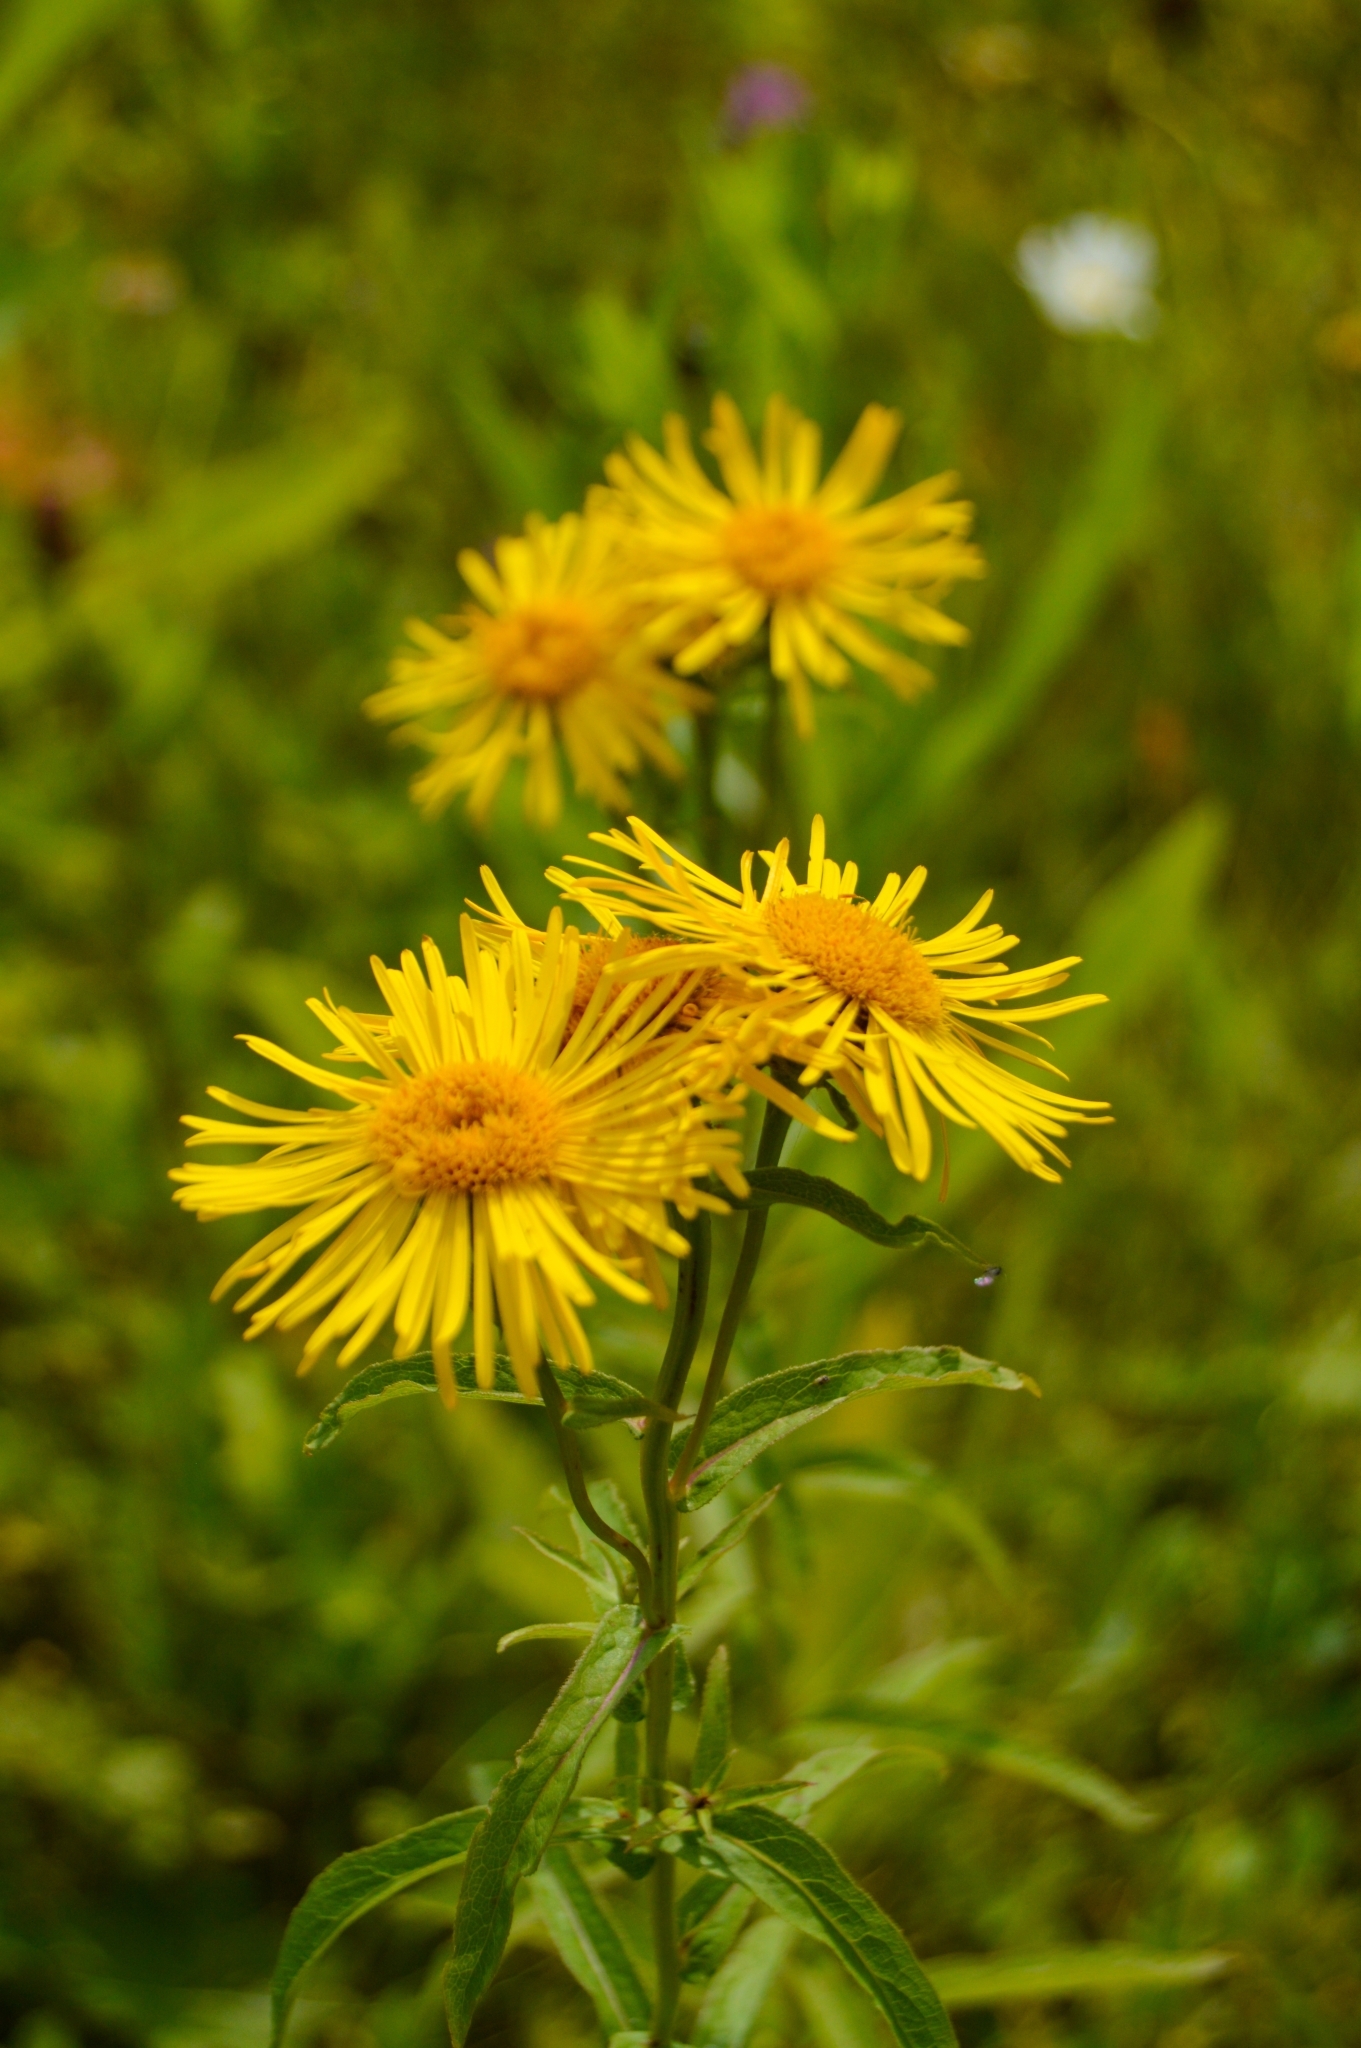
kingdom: Plantae
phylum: Tracheophyta
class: Magnoliopsida
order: Asterales
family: Asteraceae
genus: Pentanema
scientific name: Pentanema salicinum
